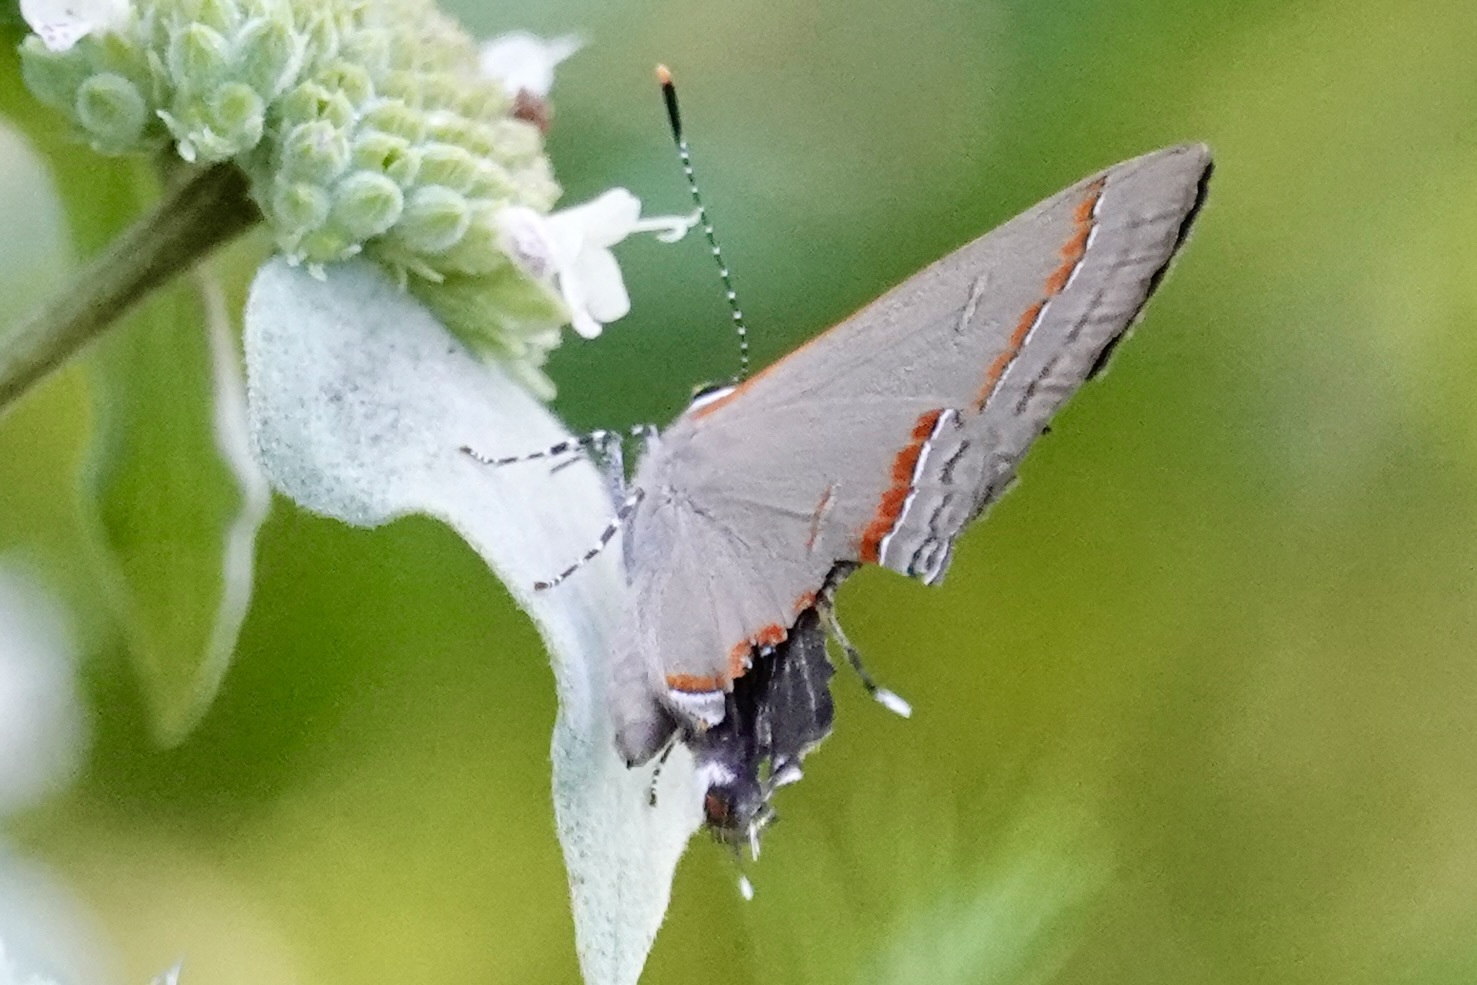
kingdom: Animalia
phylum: Arthropoda
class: Insecta
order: Lepidoptera
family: Lycaenidae
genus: Calycopis
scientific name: Calycopis cecrops
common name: Red-banded hairstreak
